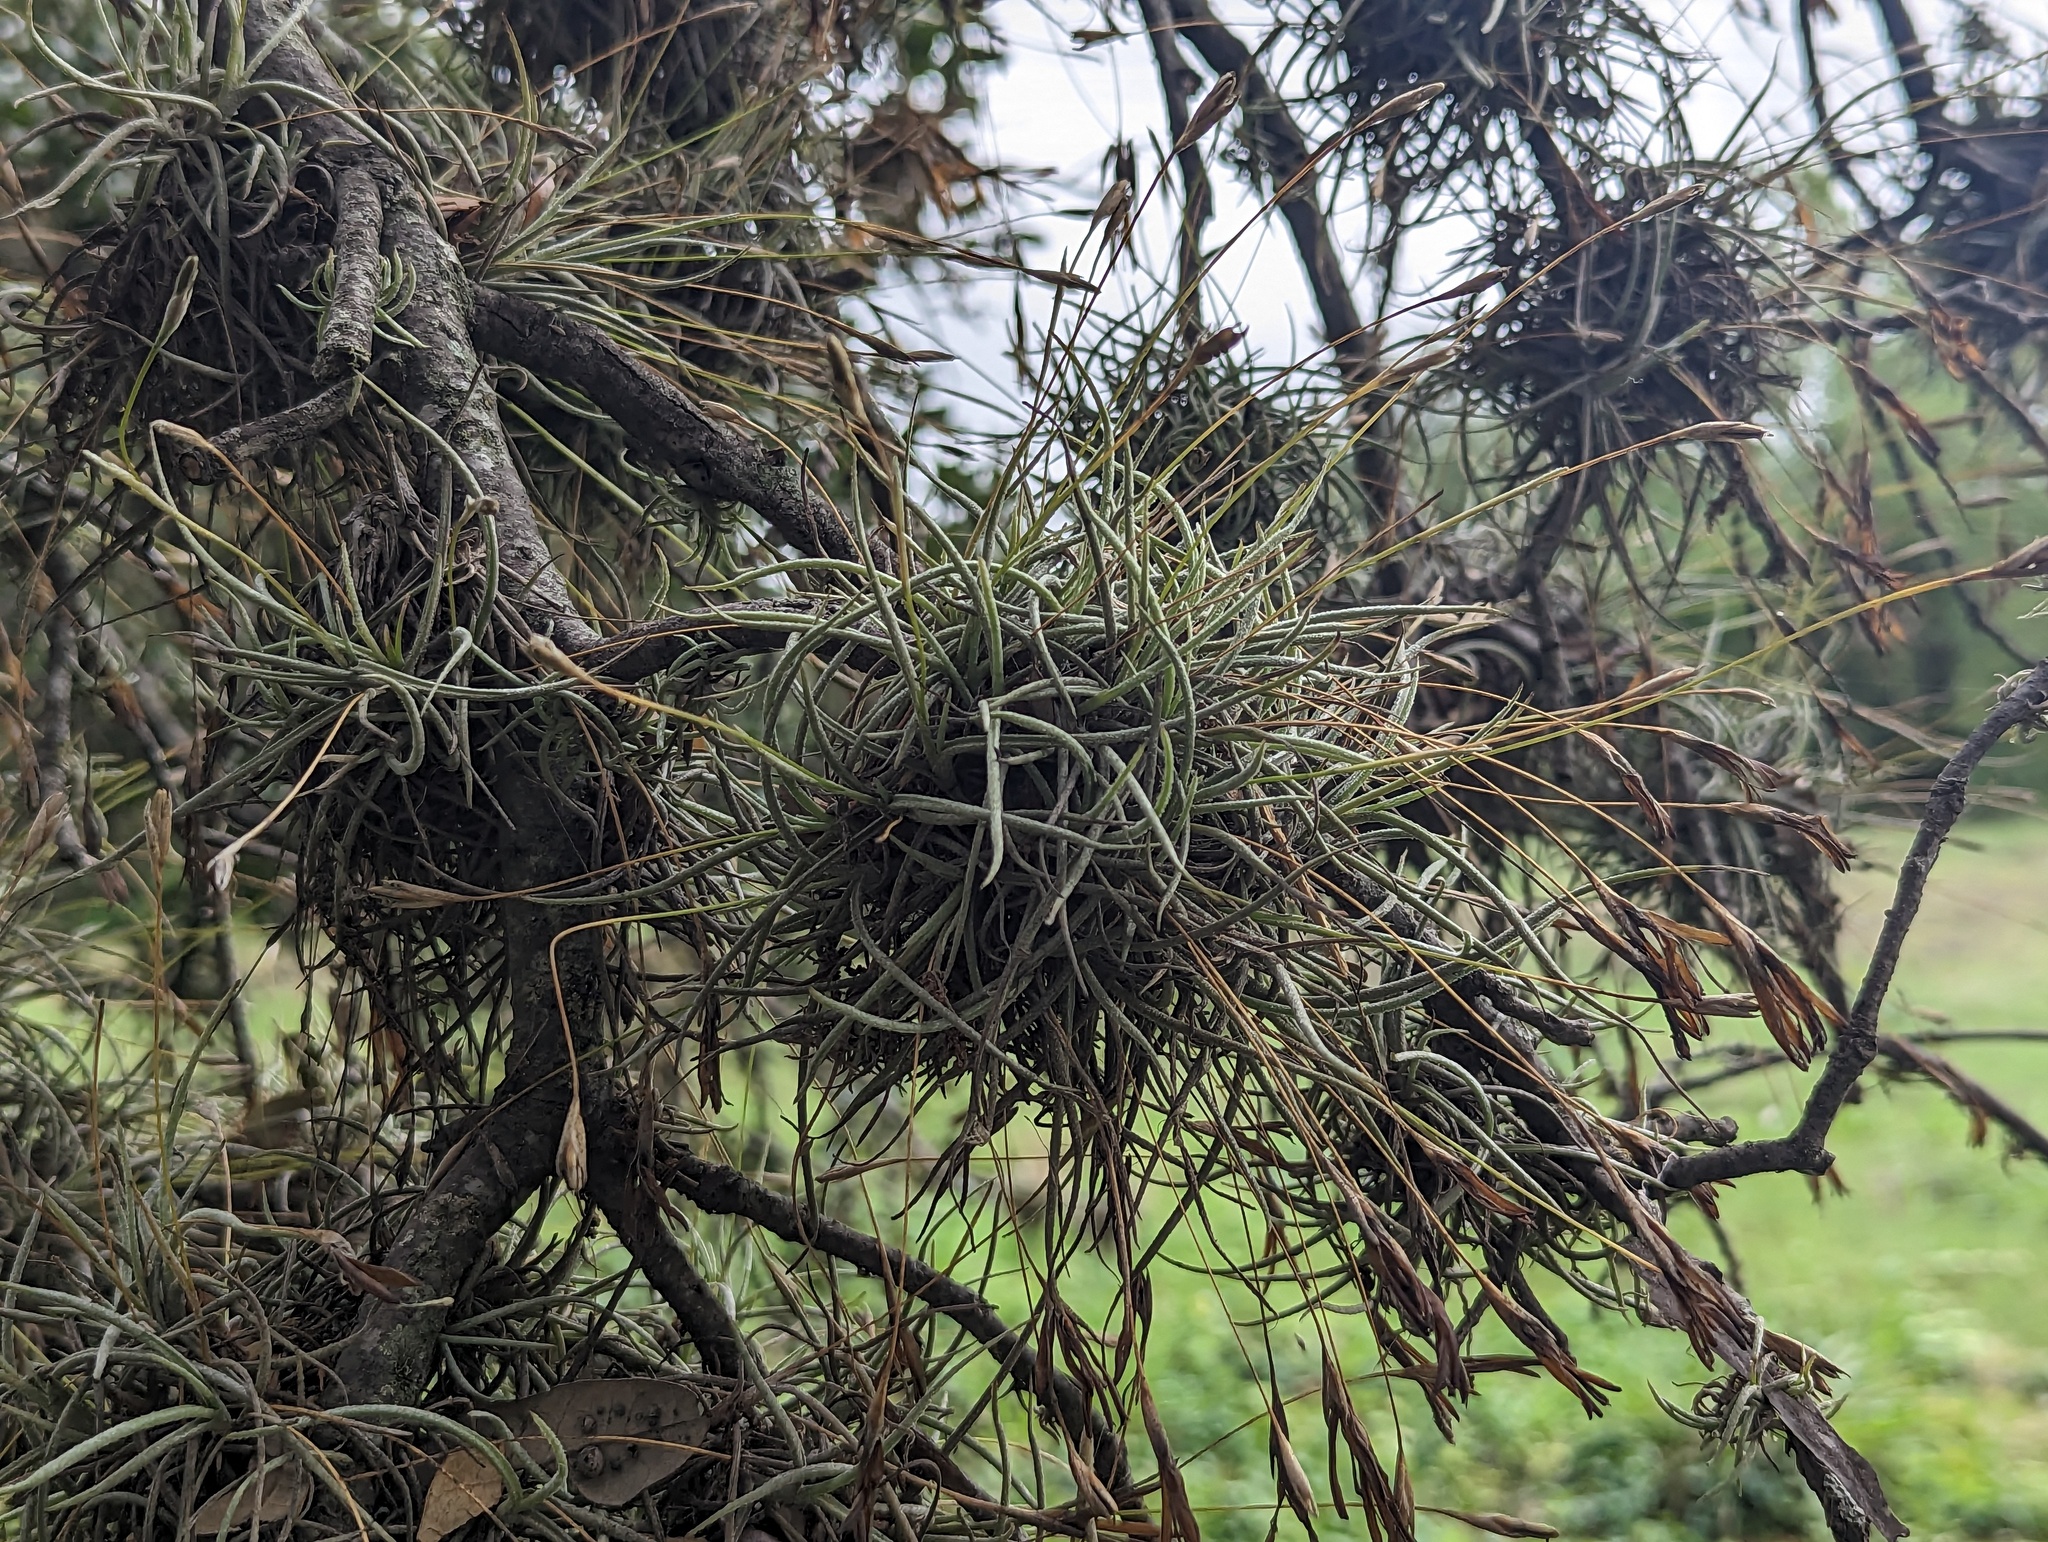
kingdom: Plantae
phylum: Tracheophyta
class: Liliopsida
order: Poales
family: Bromeliaceae
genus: Tillandsia
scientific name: Tillandsia recurvata
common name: Small ballmoss
